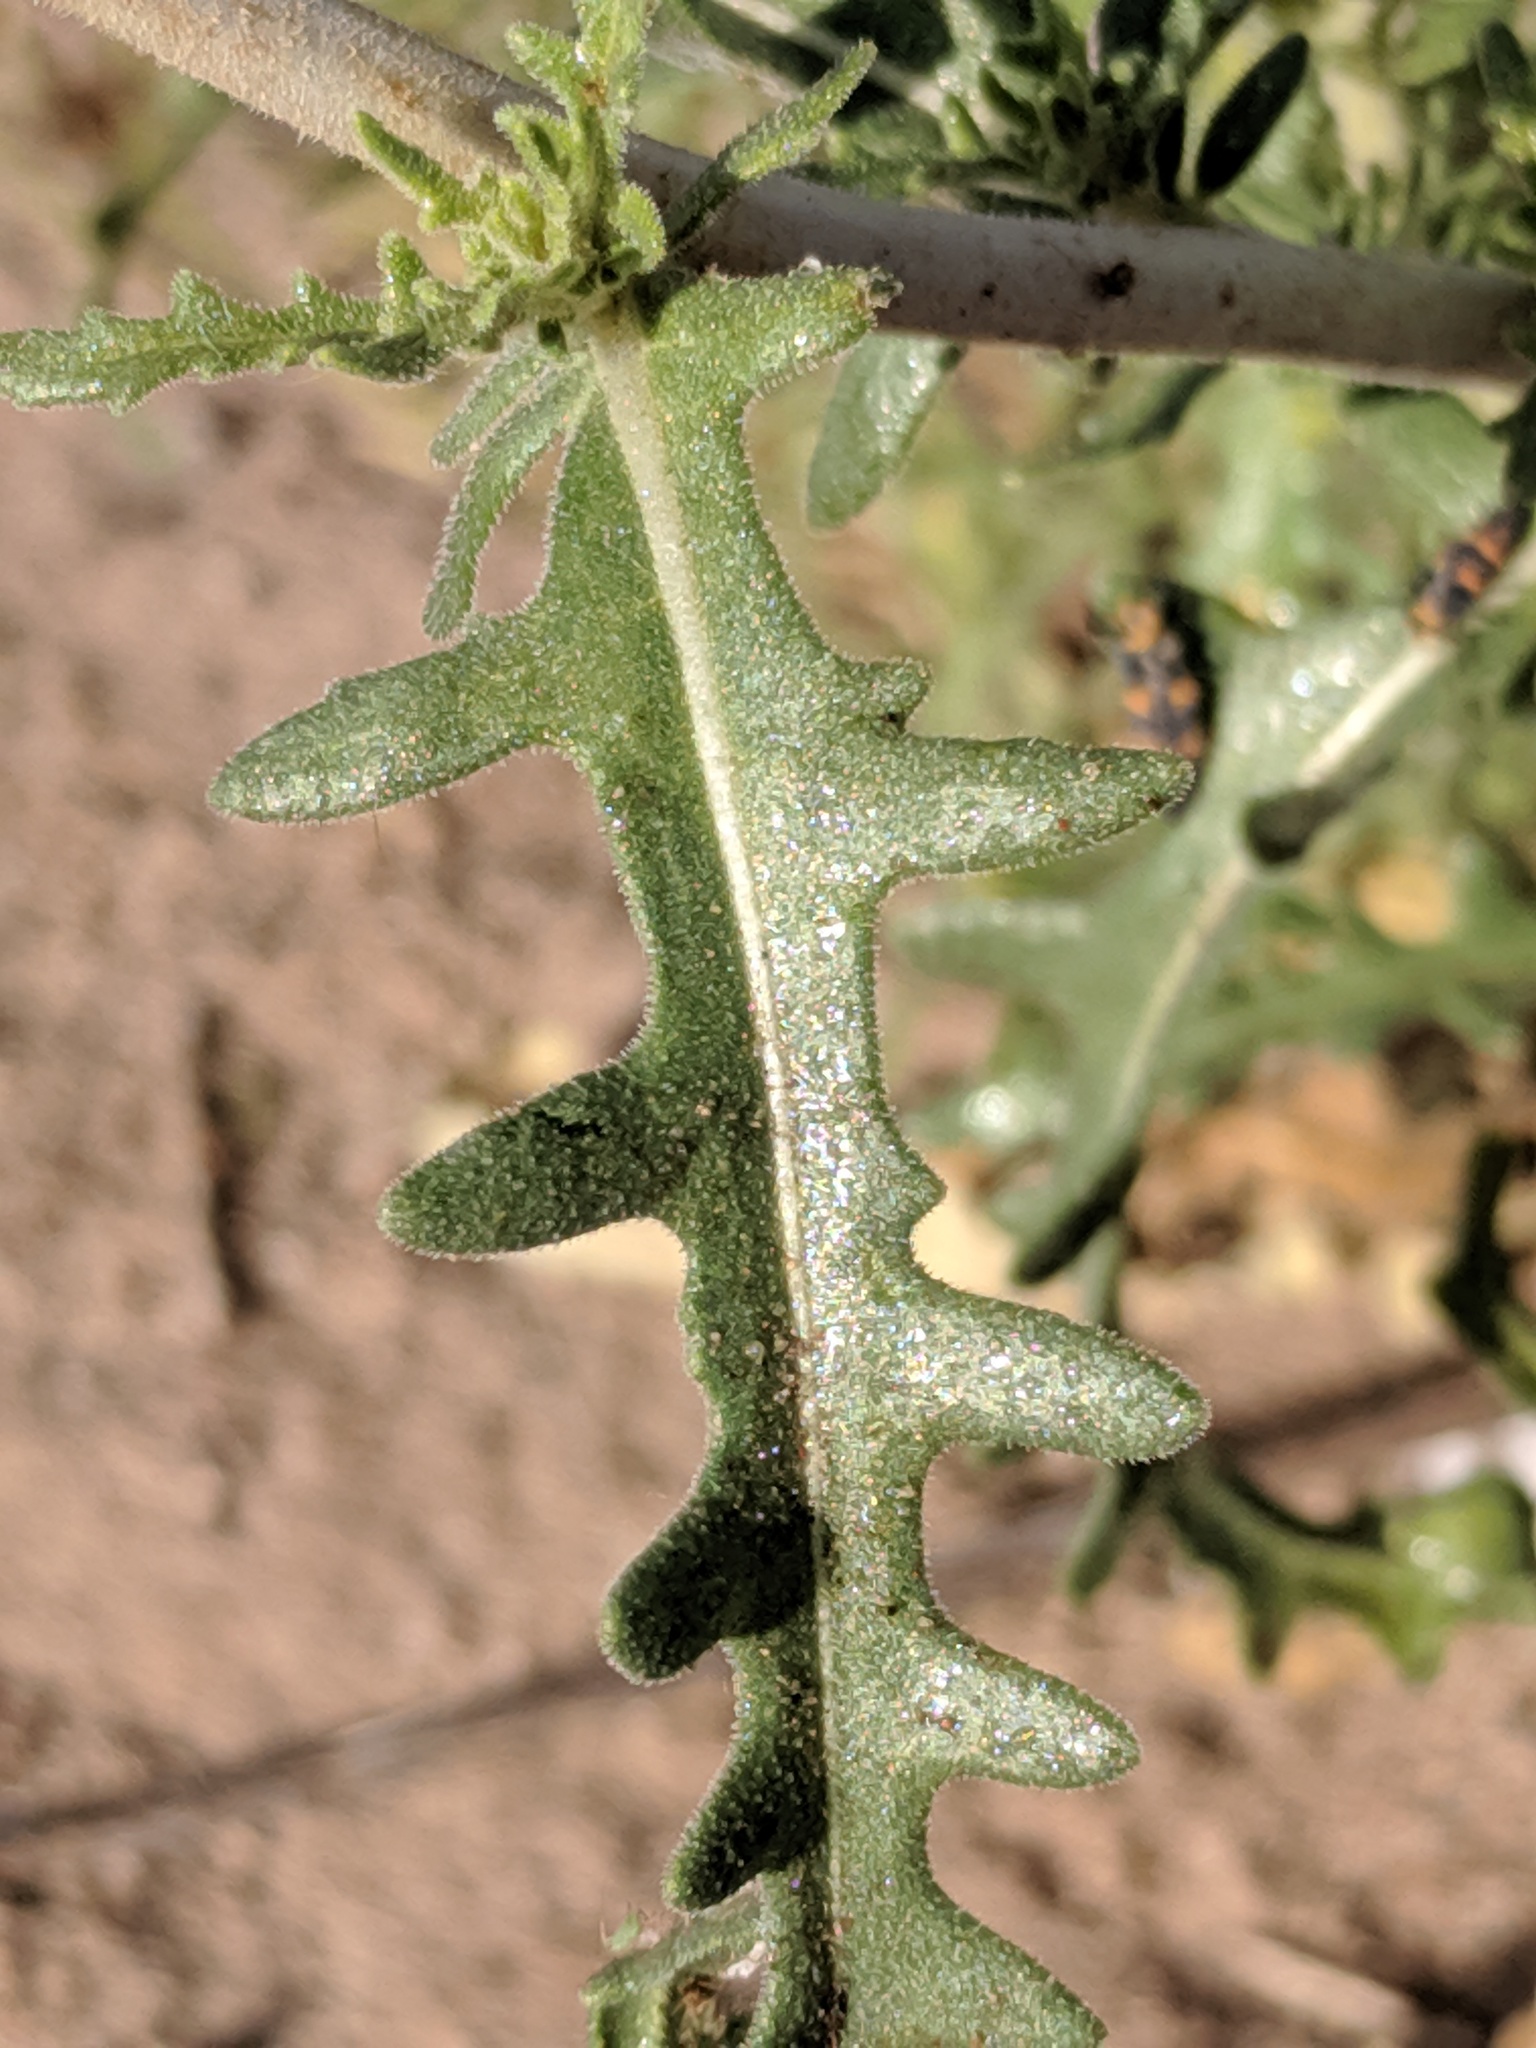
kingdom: Plantae
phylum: Tracheophyta
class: Magnoliopsida
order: Cornales
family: Loasaceae
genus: Mentzelia
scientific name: Mentzelia multiflora
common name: Adonis blazingstar
